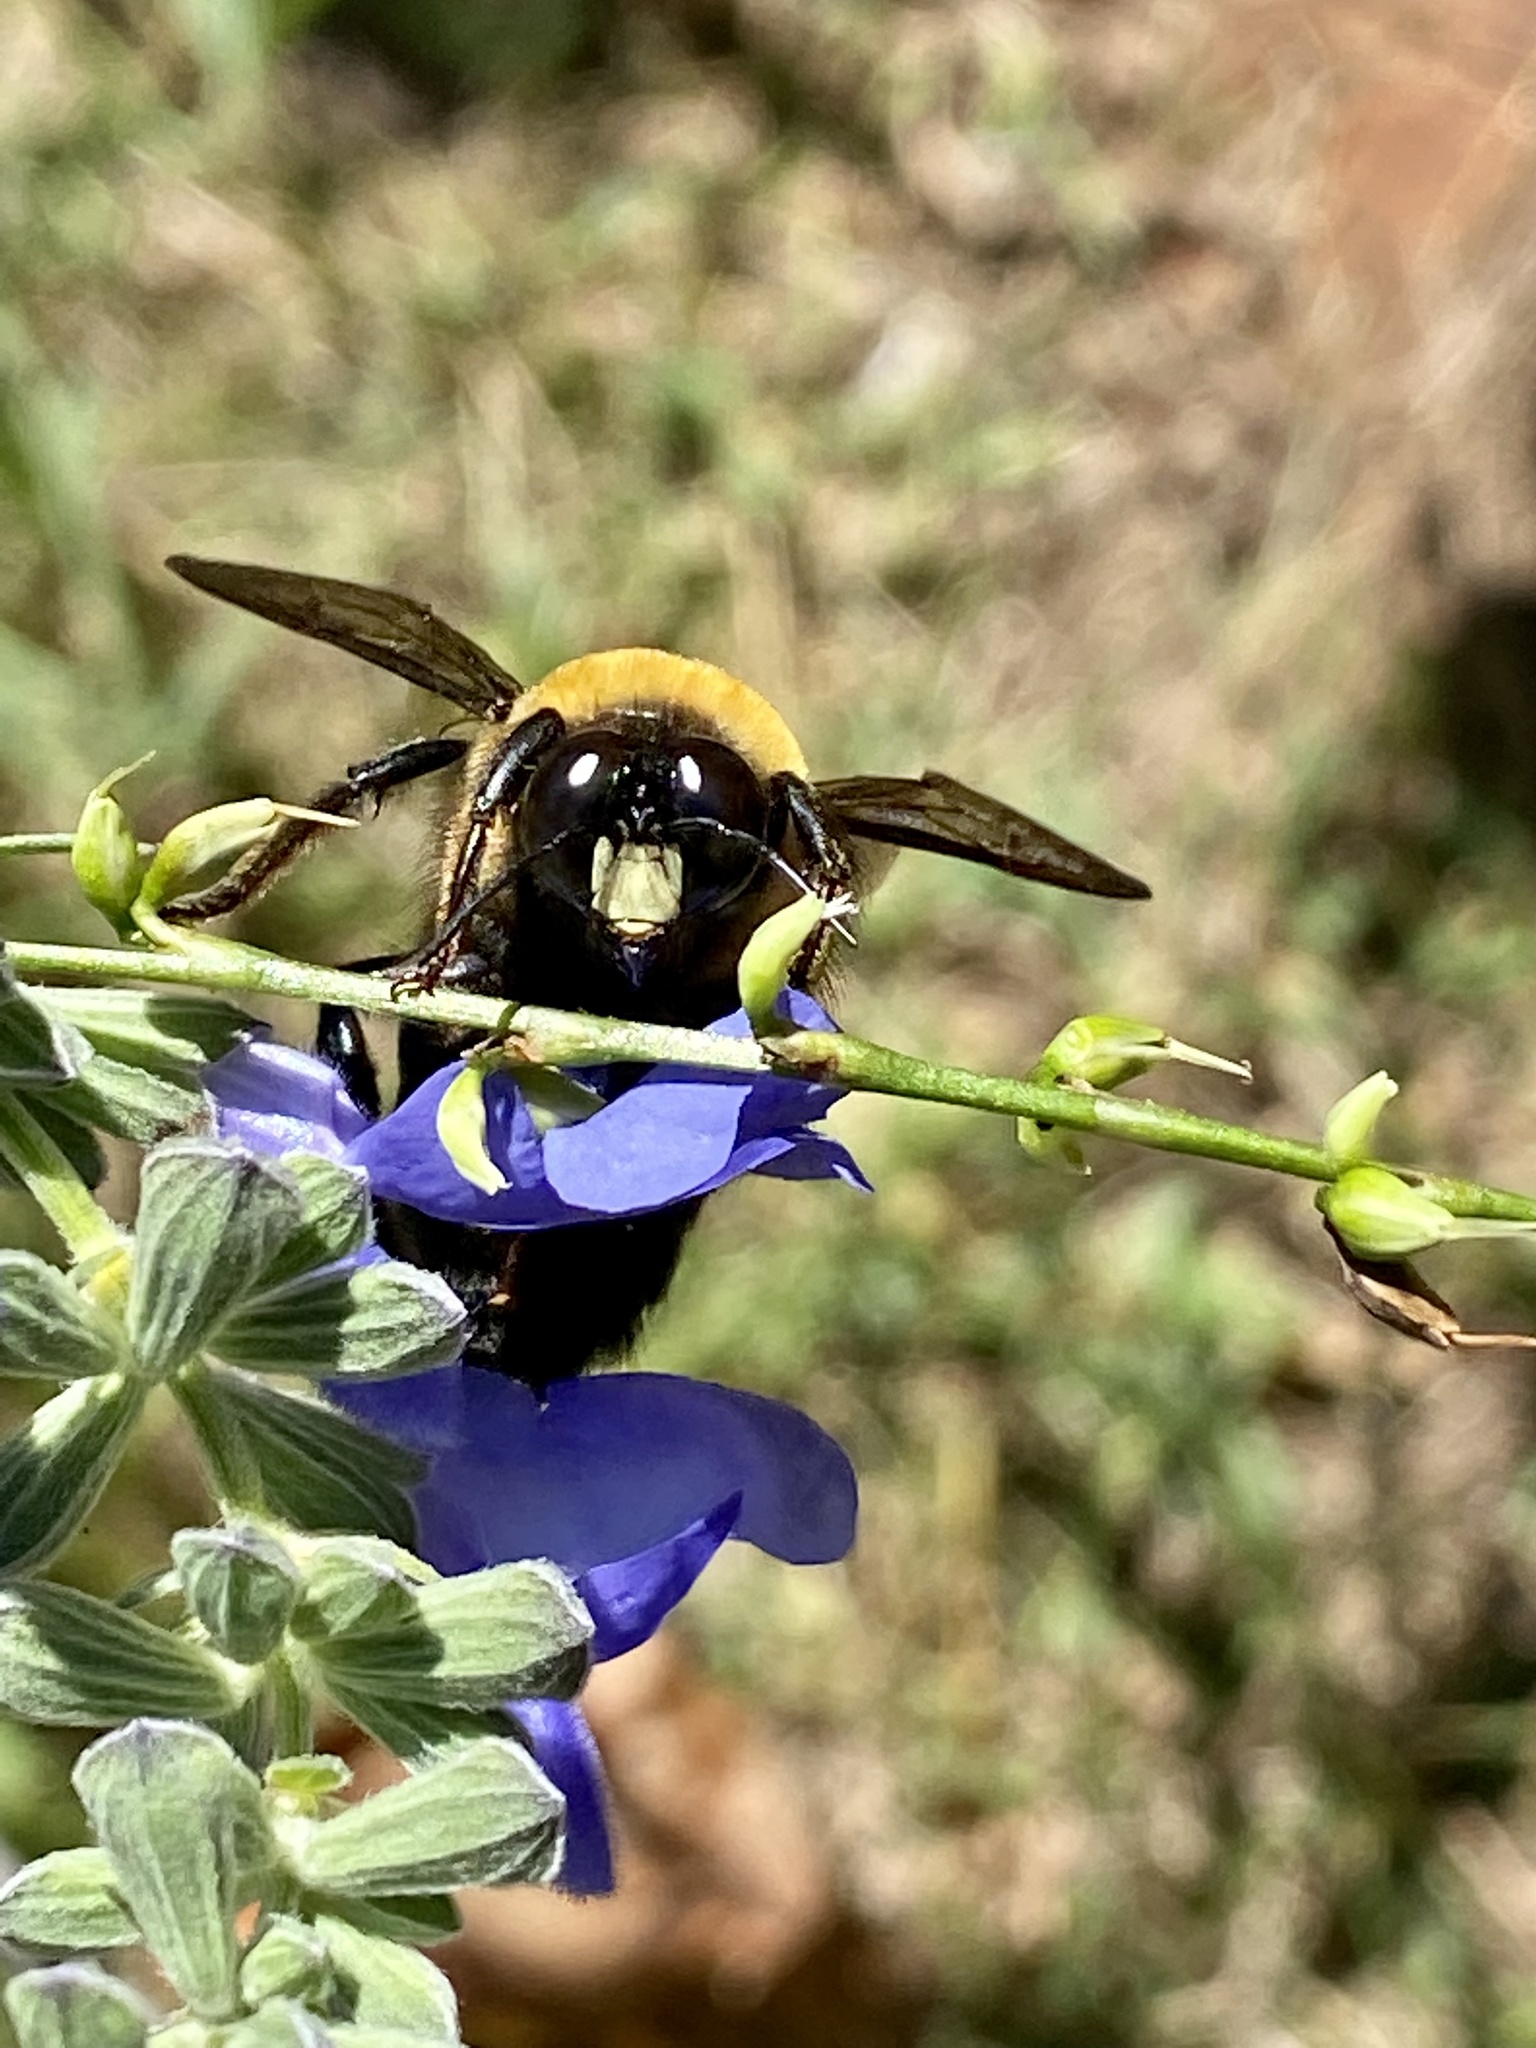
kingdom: Animalia
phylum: Arthropoda
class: Insecta
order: Hymenoptera
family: Apidae
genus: Xylocopa
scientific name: Xylocopa virginica
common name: Carpenter bee
